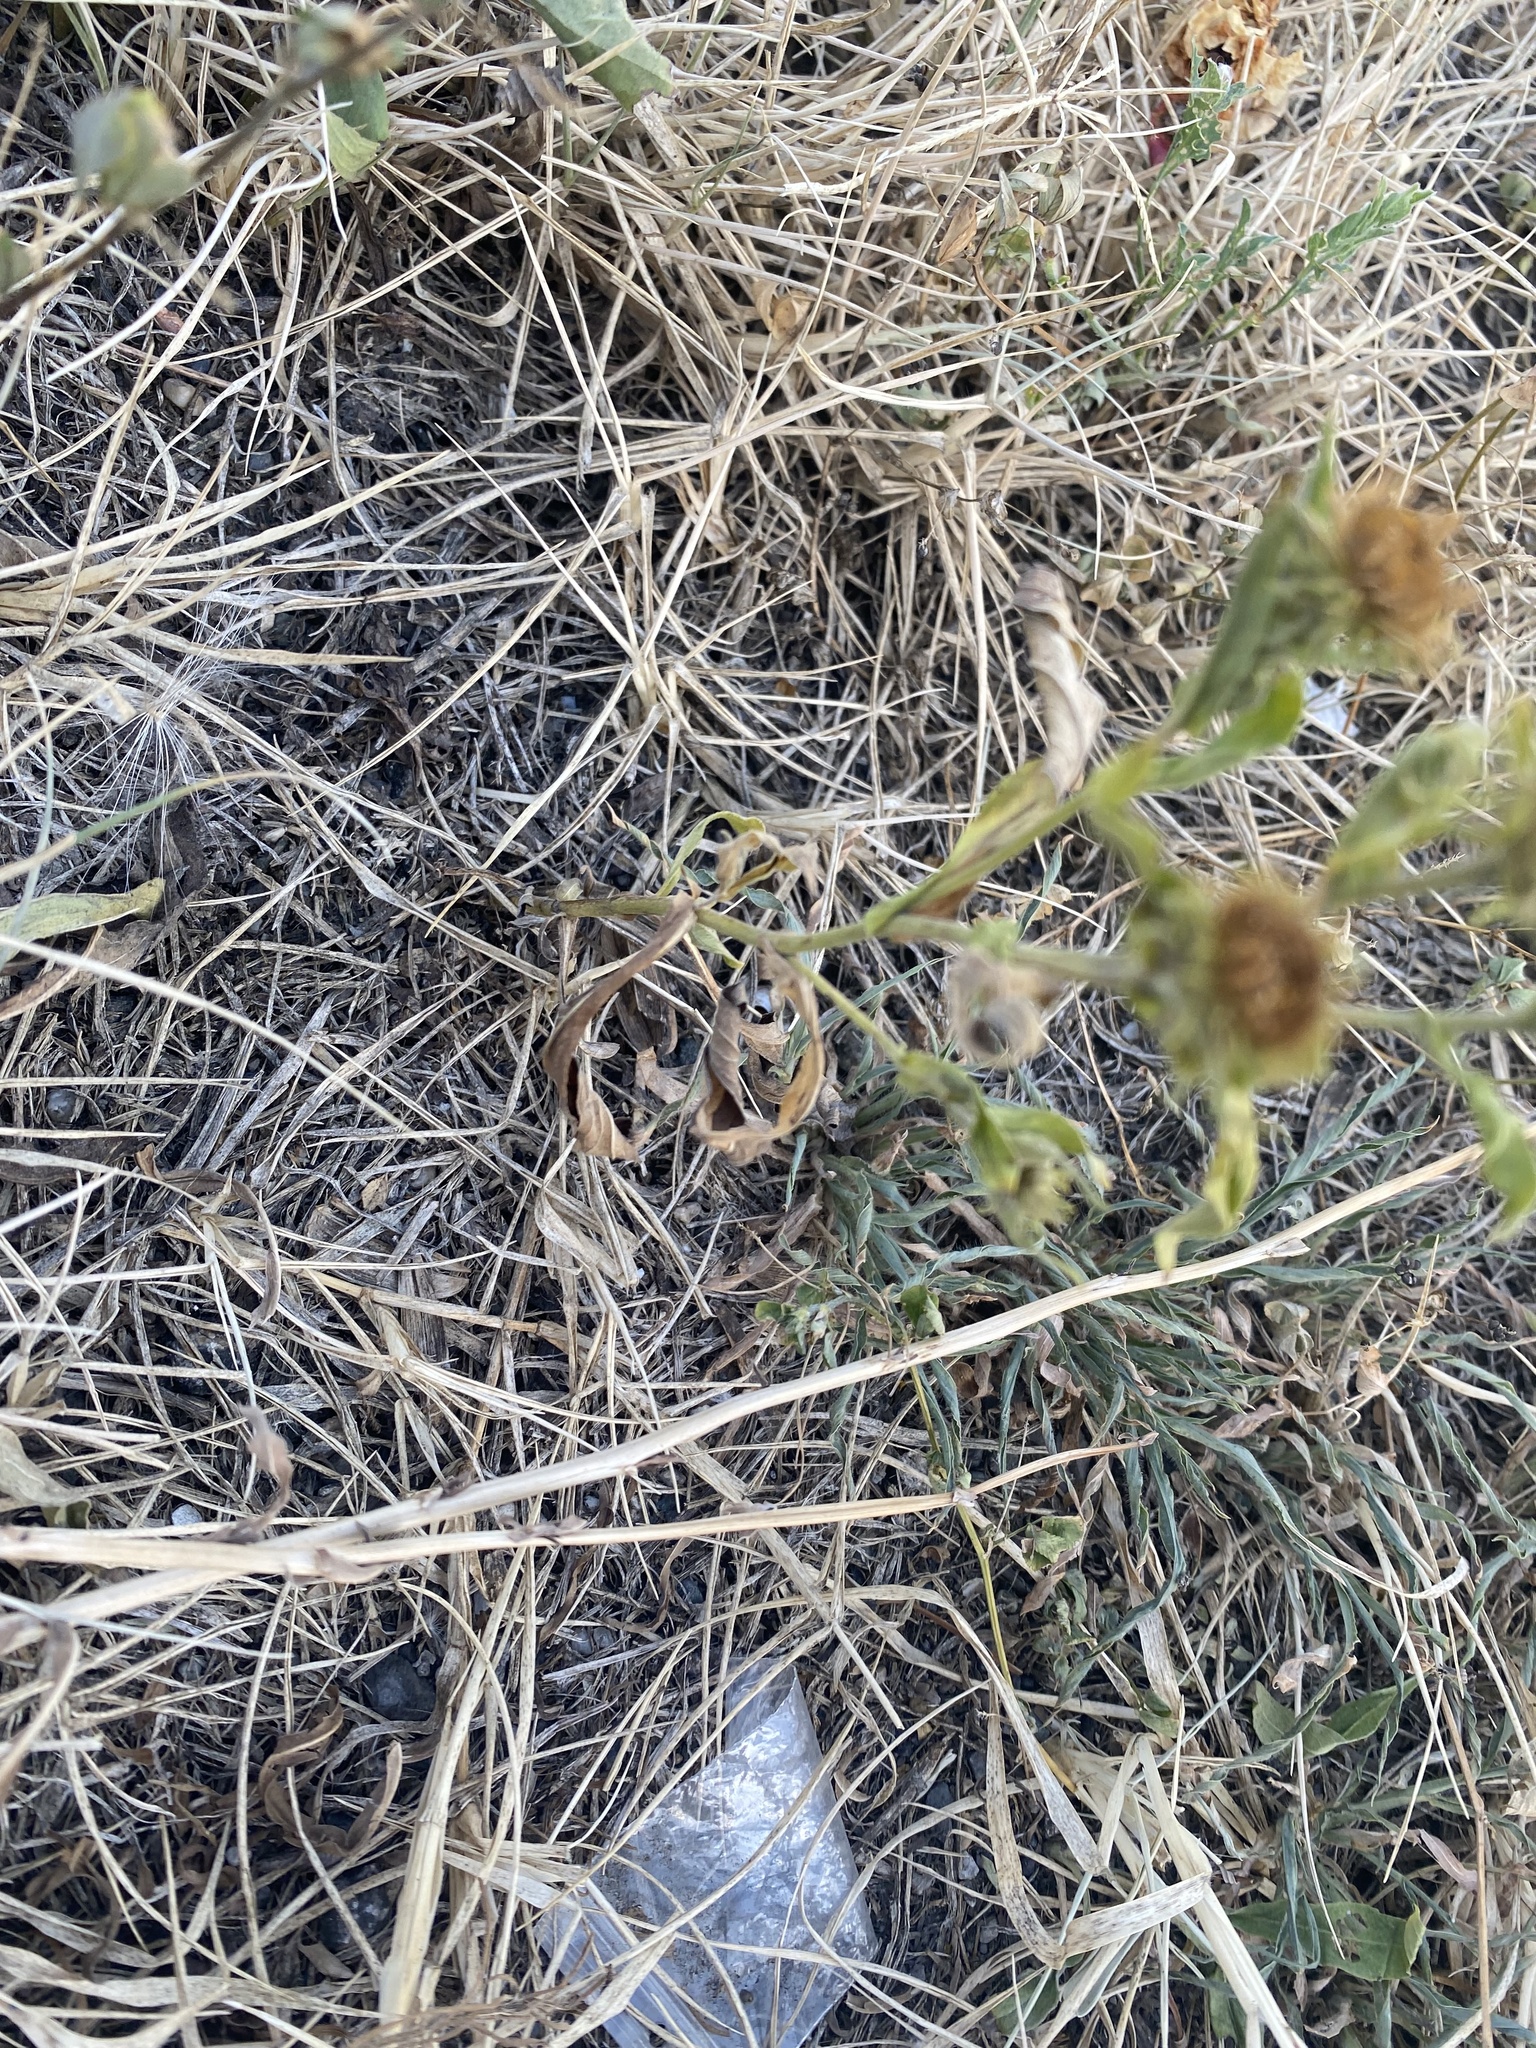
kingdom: Plantae
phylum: Tracheophyta
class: Magnoliopsida
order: Asterales
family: Asteraceae
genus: Pentanema
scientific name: Pentanema britannicum
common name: British elecampane
